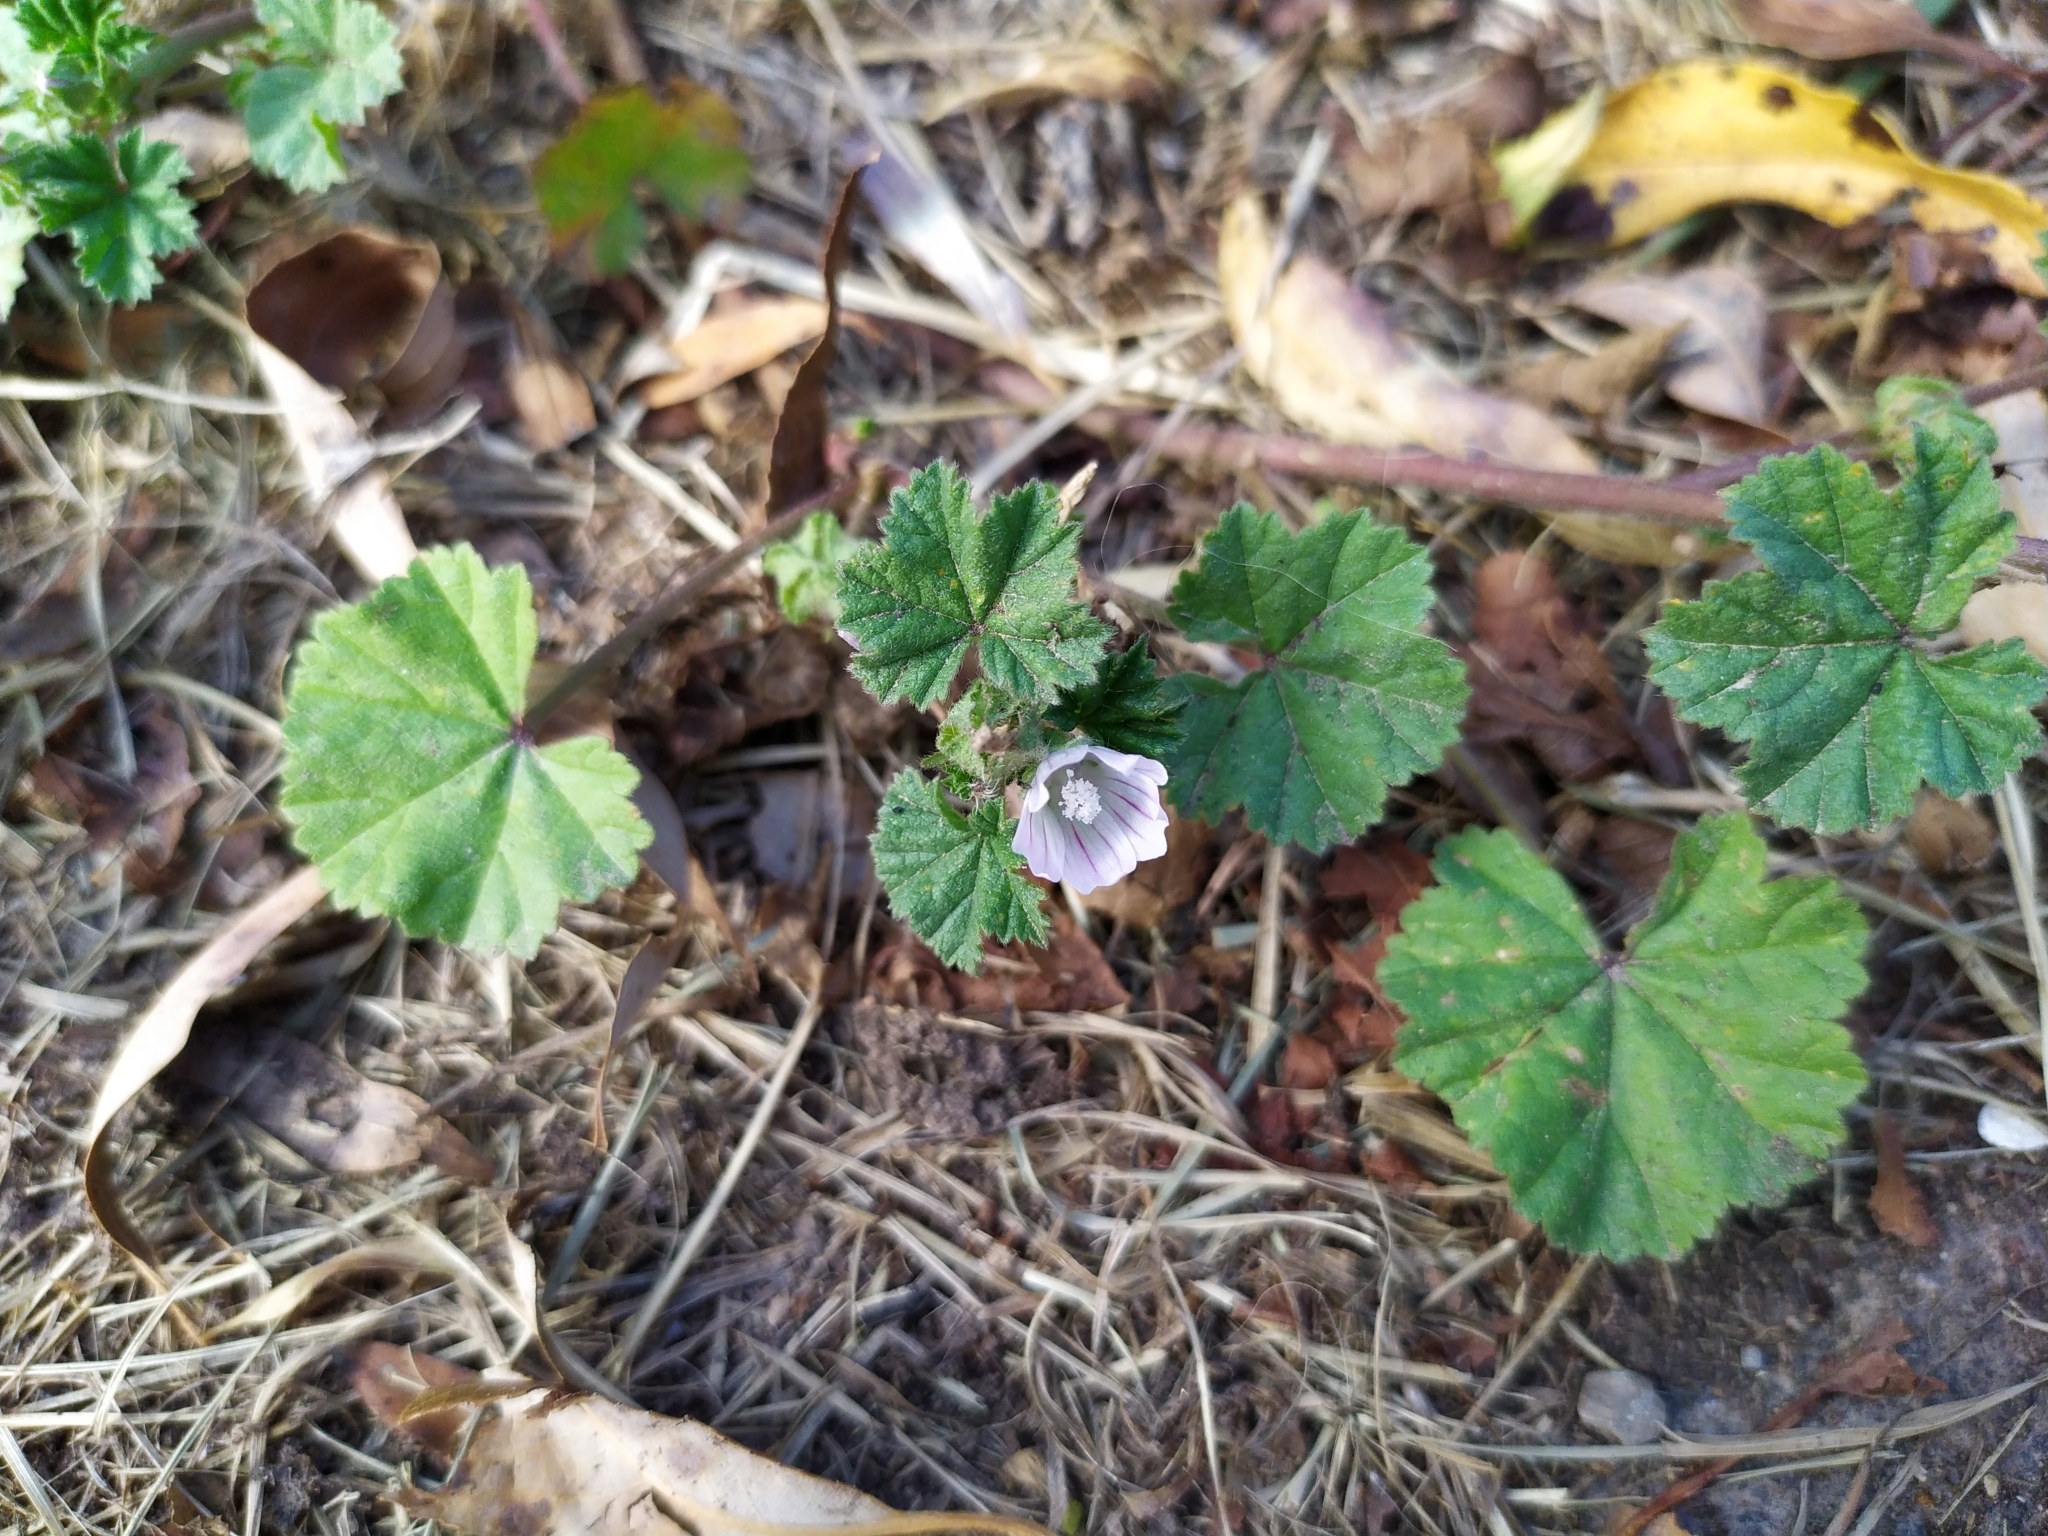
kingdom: Plantae
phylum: Tracheophyta
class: Magnoliopsida
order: Malvales
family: Malvaceae
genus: Malva
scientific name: Malva neglecta
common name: Common mallow
